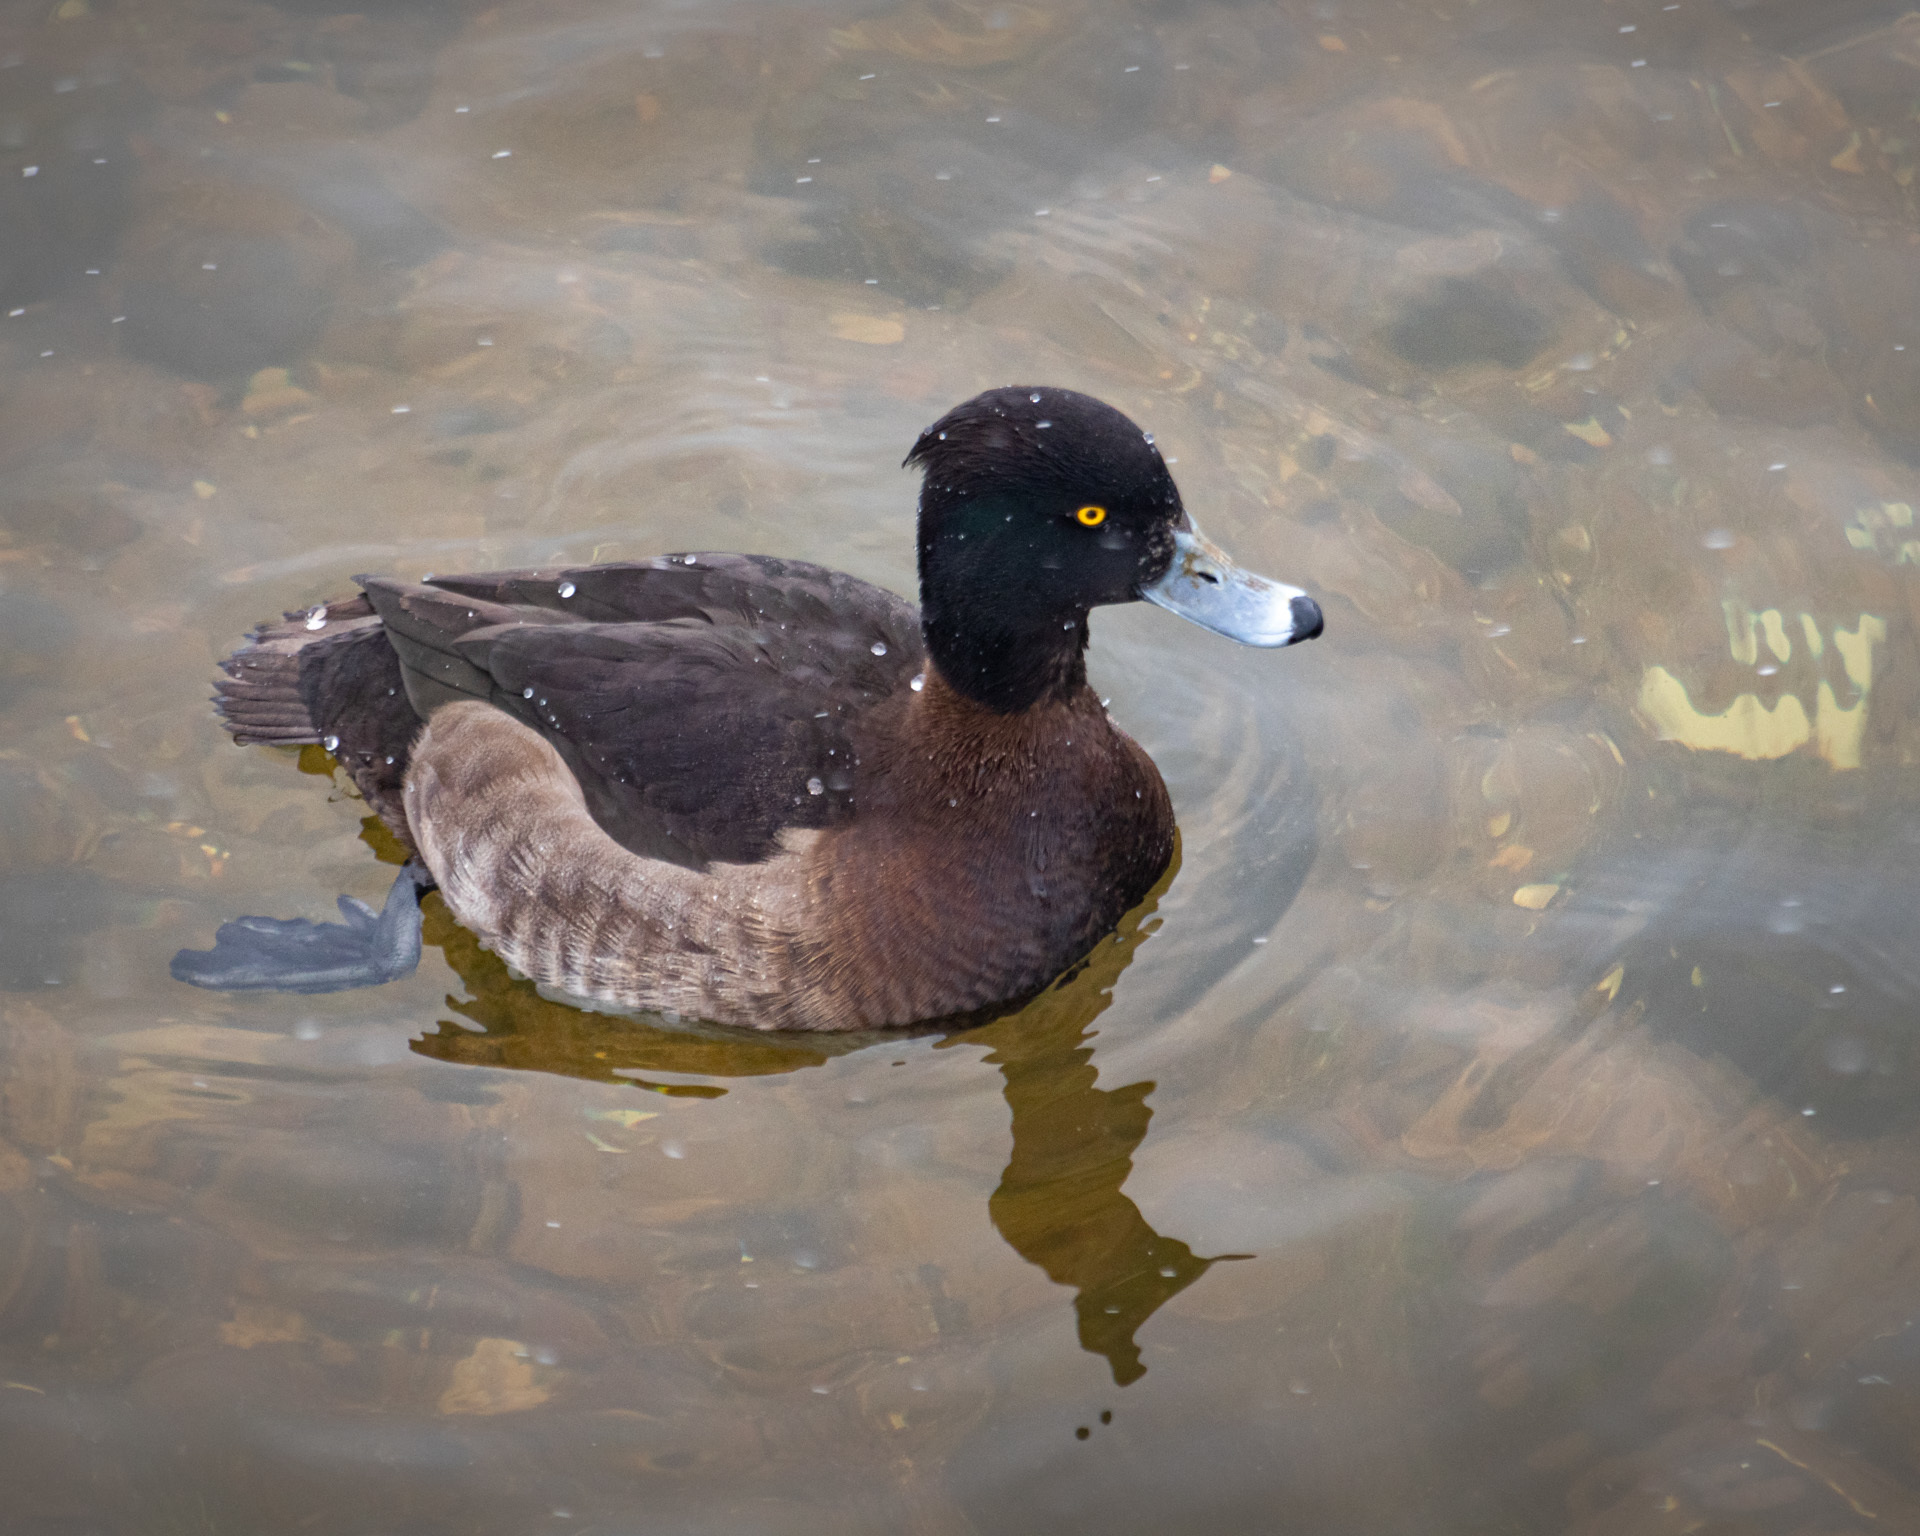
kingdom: Animalia
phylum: Chordata
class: Aves
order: Anseriformes
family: Anatidae
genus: Aythya
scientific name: Aythya fuligula
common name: Tufted duck
